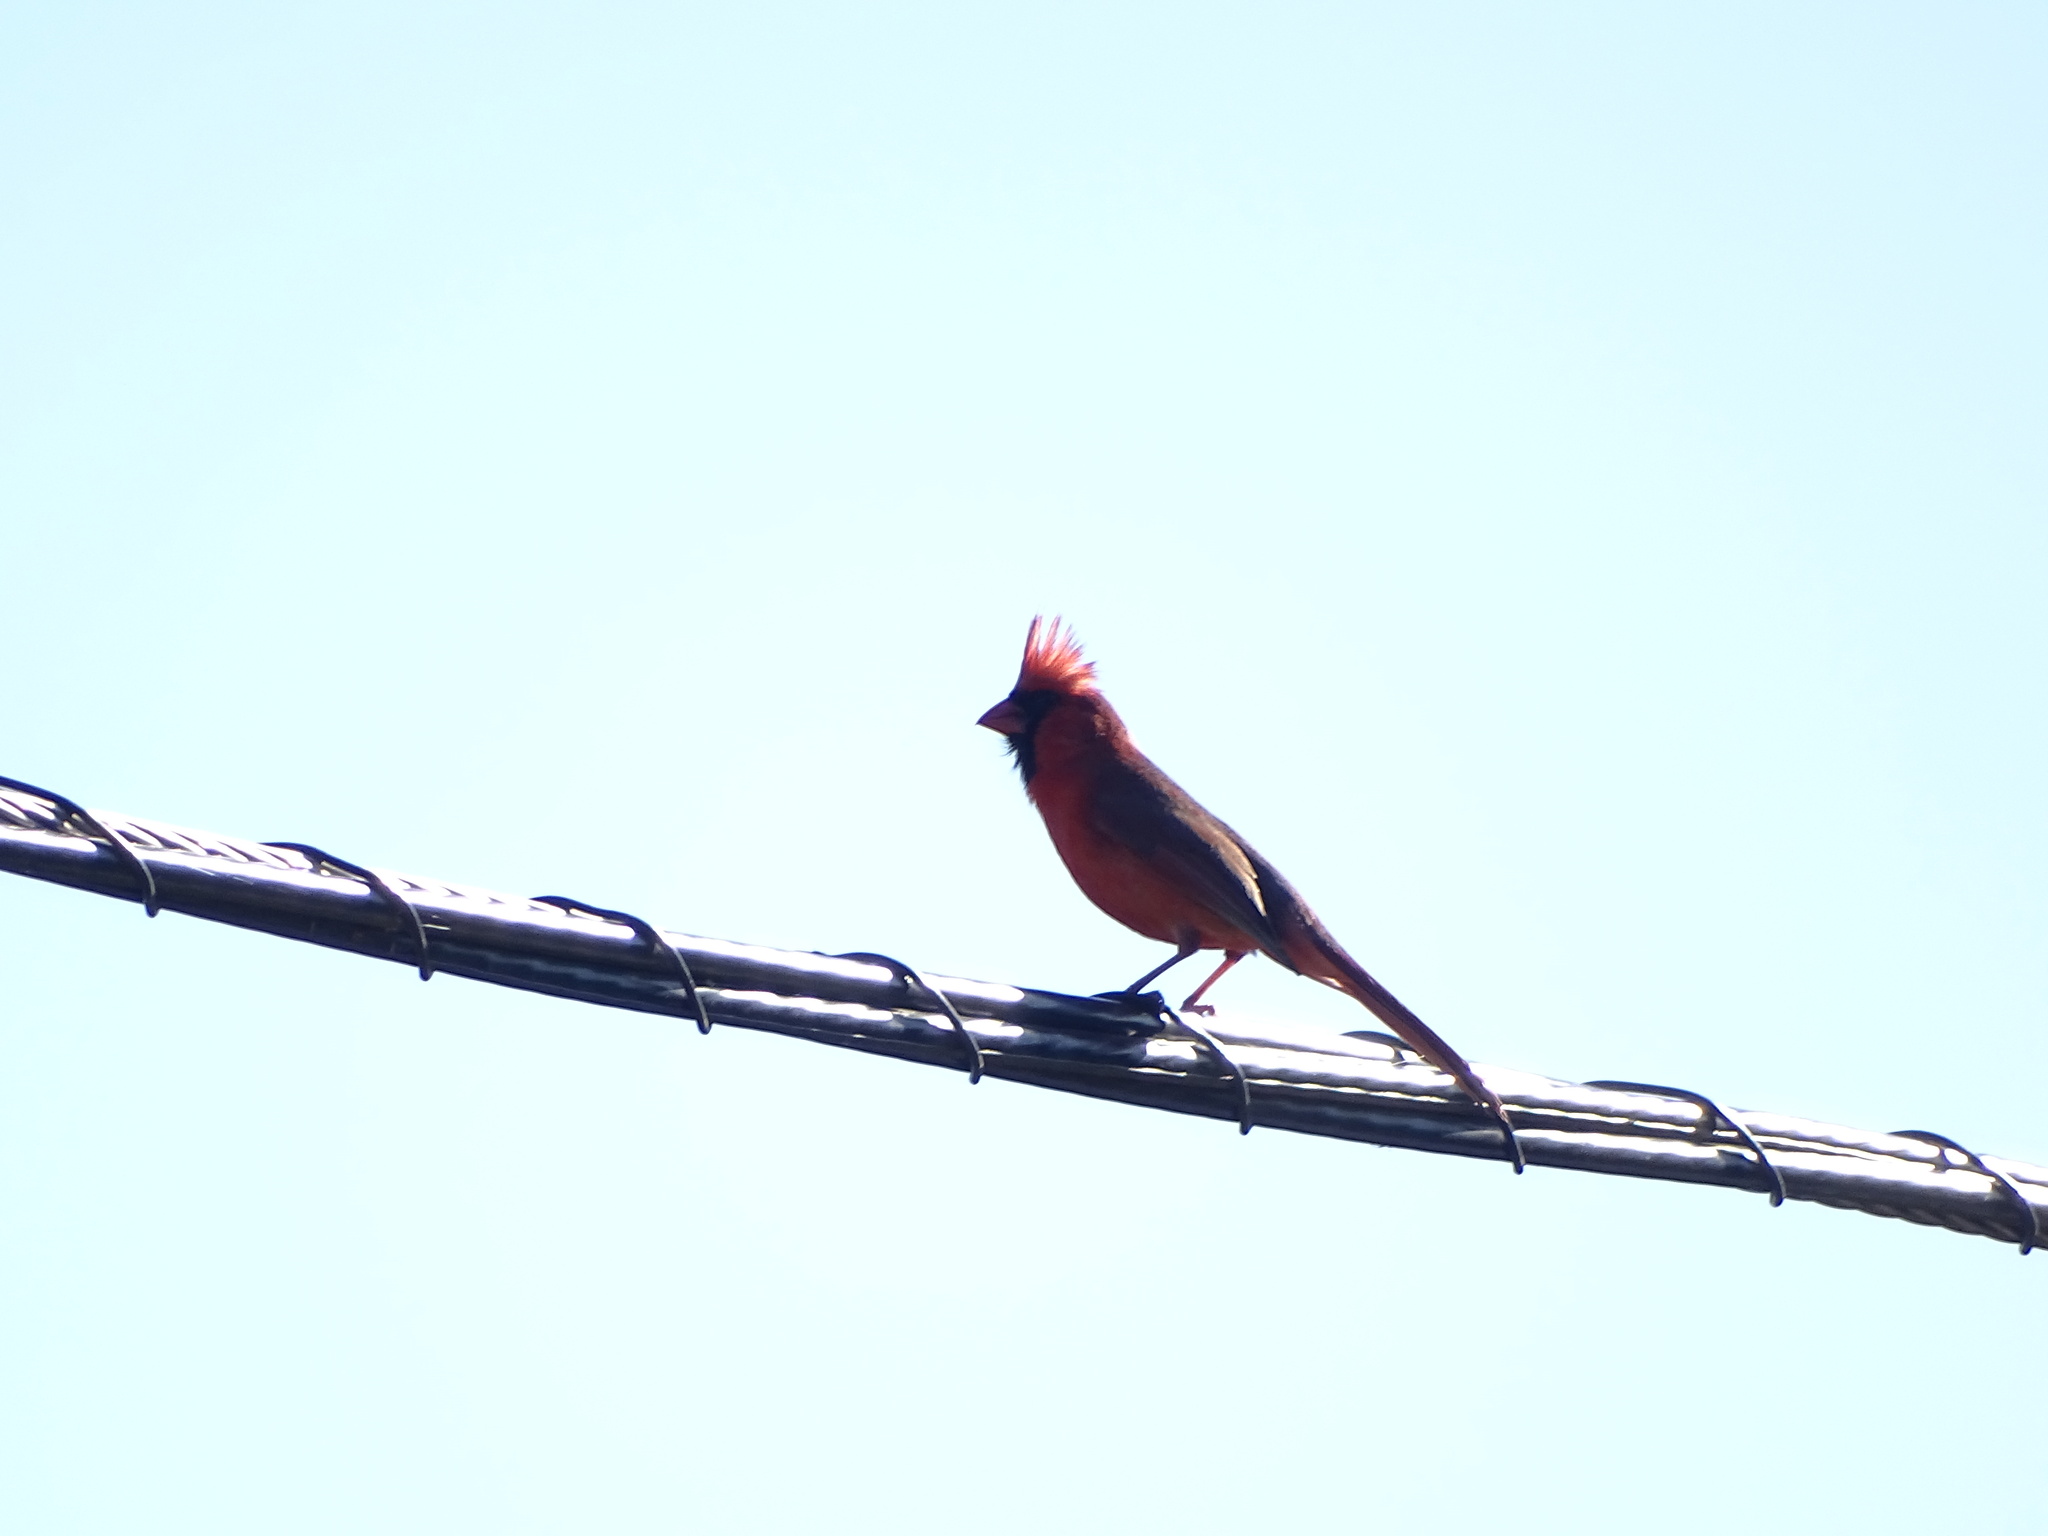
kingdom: Animalia
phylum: Chordata
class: Aves
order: Passeriformes
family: Cardinalidae
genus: Cardinalis
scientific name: Cardinalis cardinalis
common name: Northern cardinal
